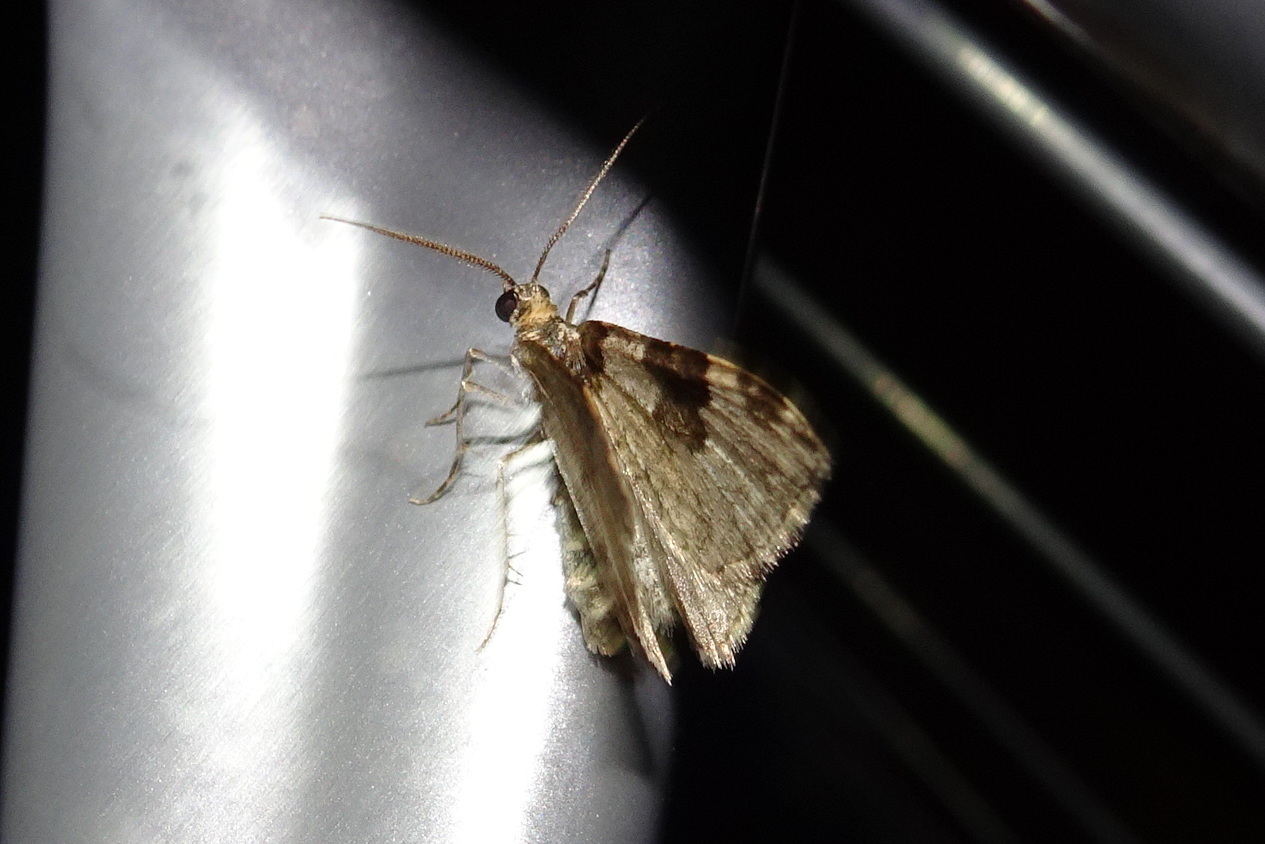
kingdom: Animalia
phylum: Arthropoda
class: Insecta
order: Lepidoptera
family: Geometridae
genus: Xanthorhoe
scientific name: Xanthorhoe fluctuata
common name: Garden carpet
